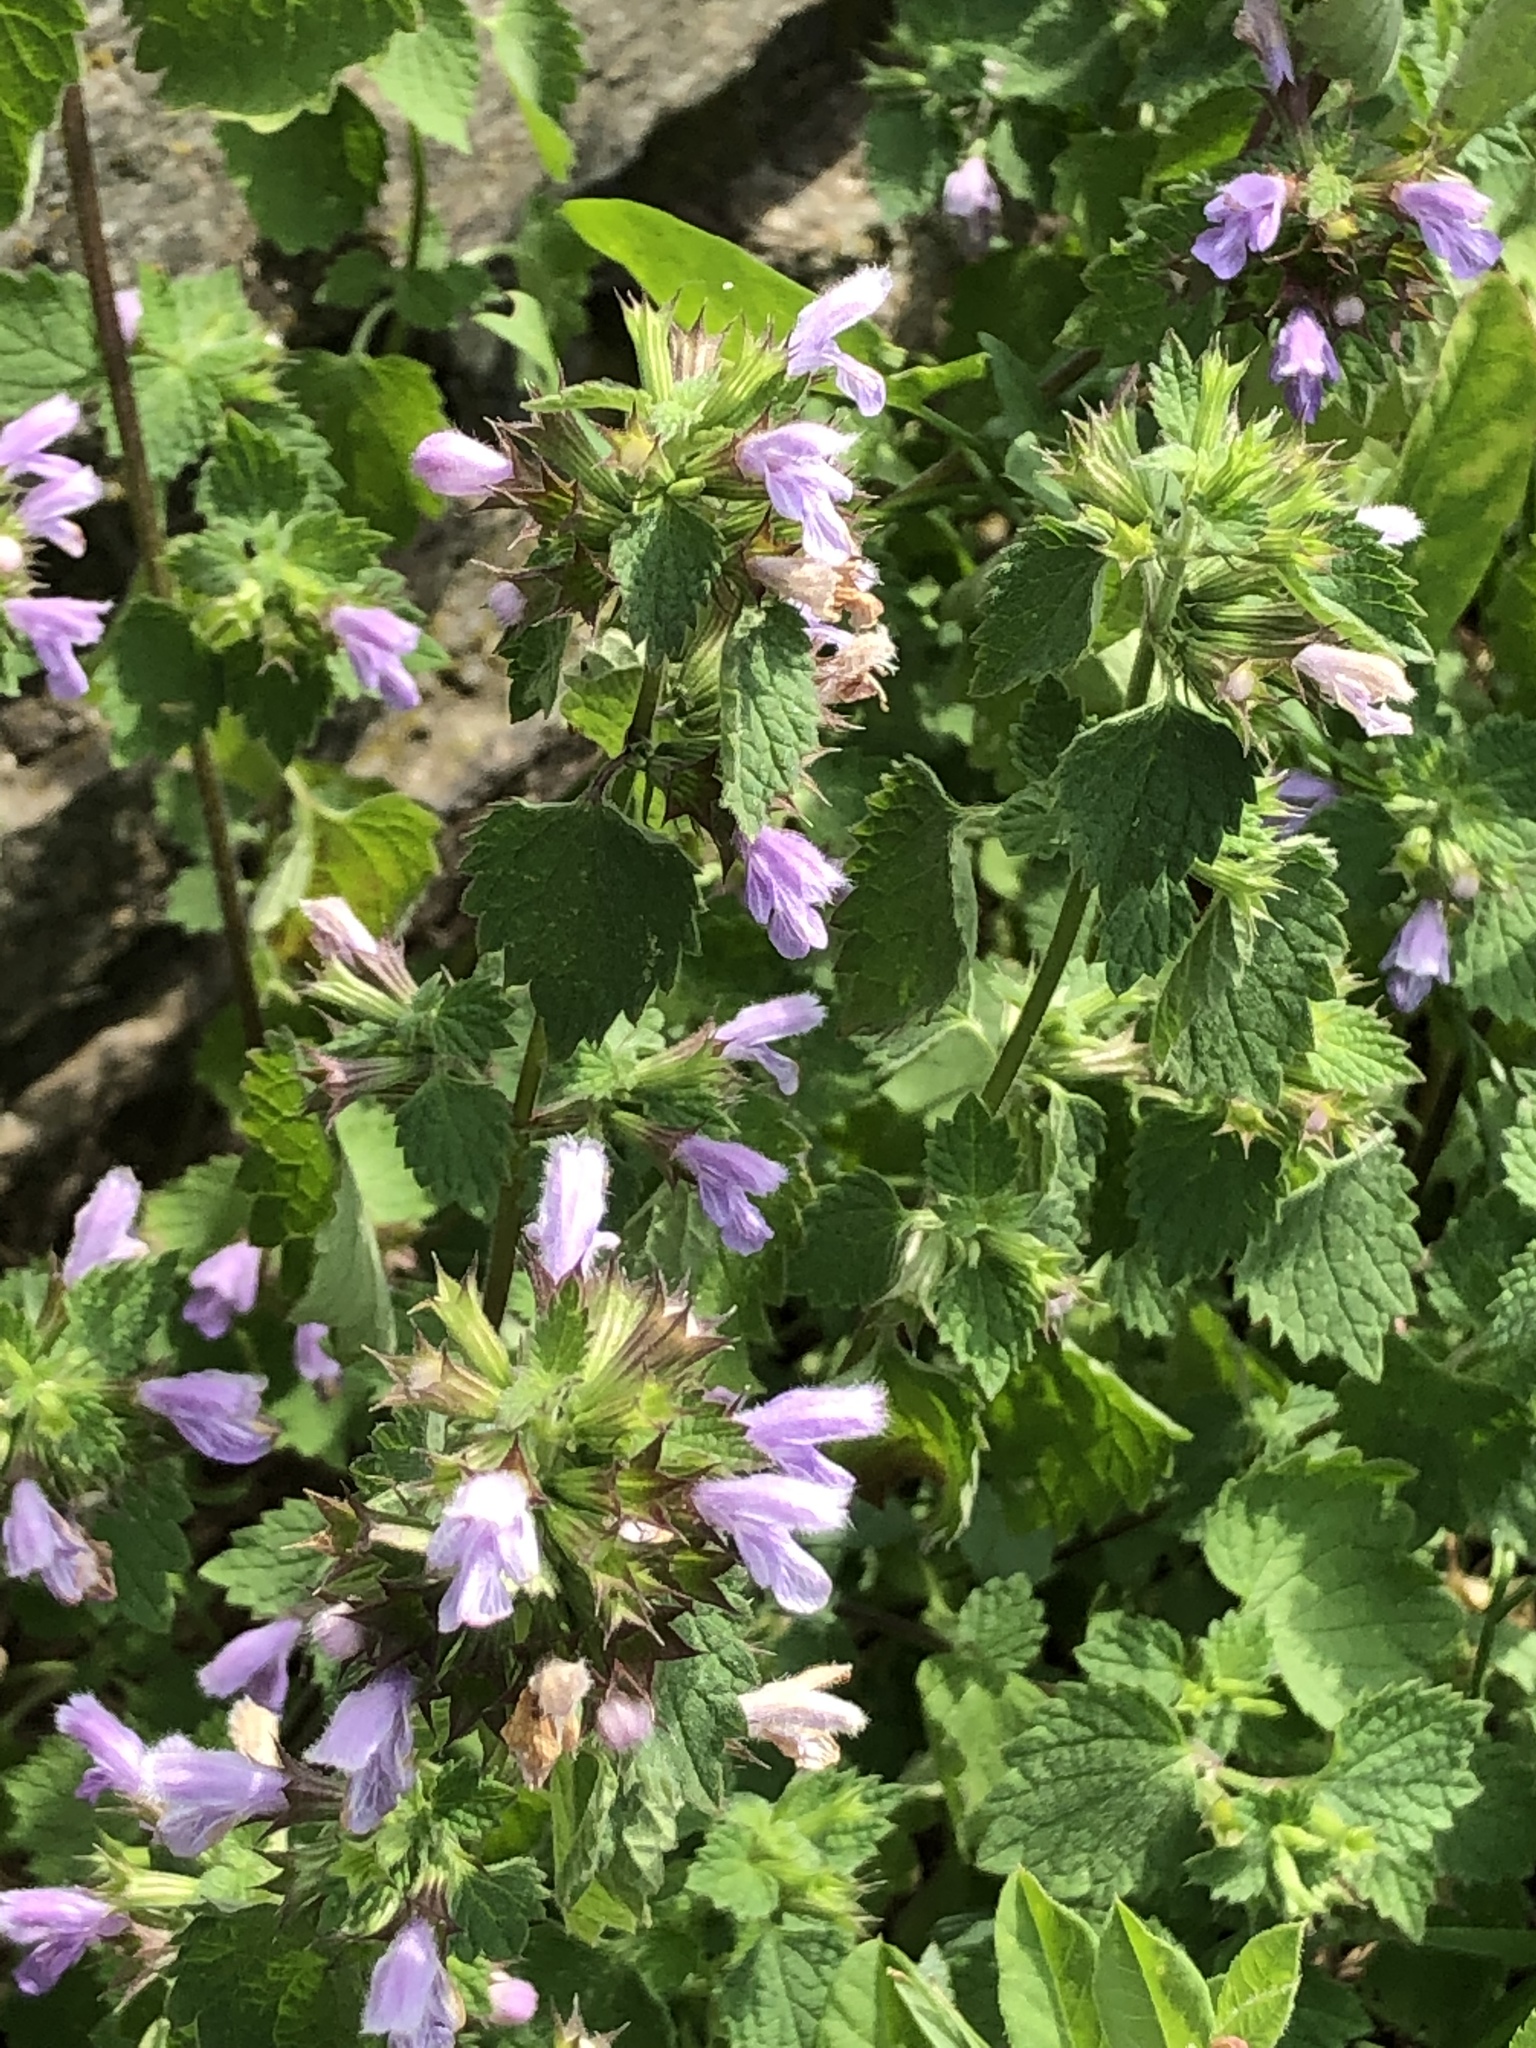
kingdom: Plantae
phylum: Tracheophyta
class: Magnoliopsida
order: Lamiales
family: Lamiaceae
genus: Ballota
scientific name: Ballota nigra
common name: Black horehound
